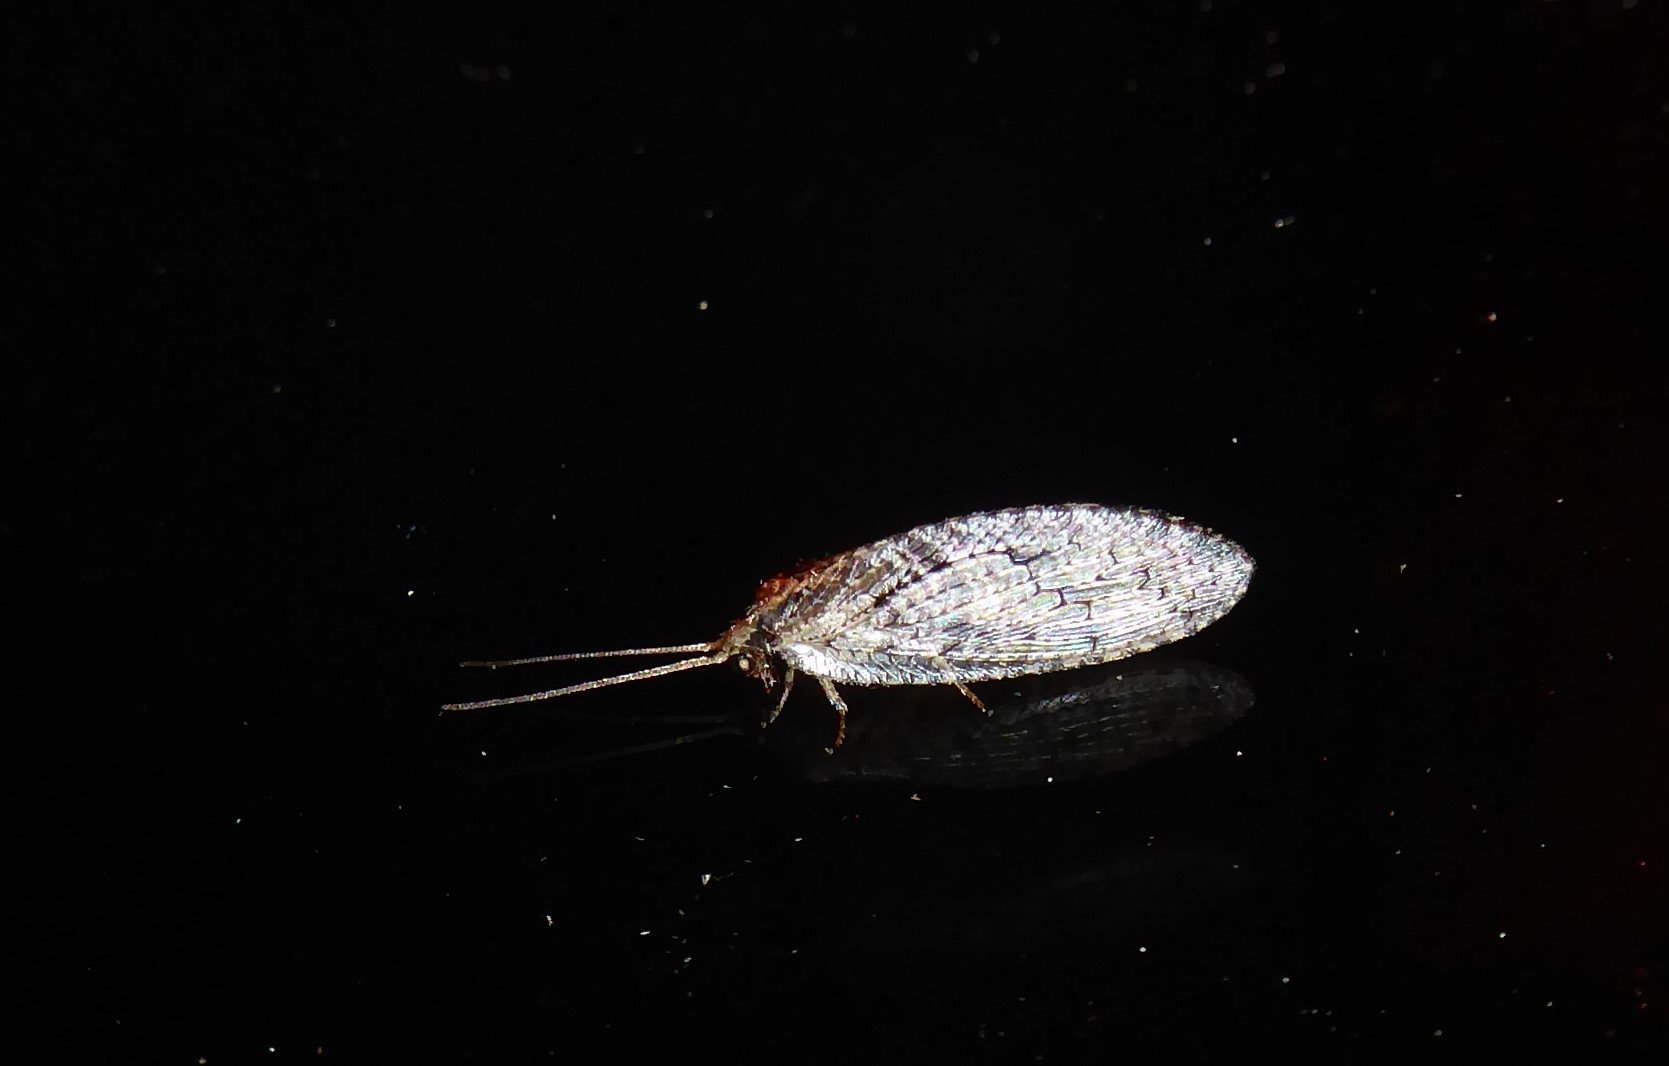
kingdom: Animalia
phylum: Arthropoda
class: Insecta
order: Neuroptera
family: Hemerobiidae
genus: Wesmaelius
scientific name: Wesmaelius subnebulosus
